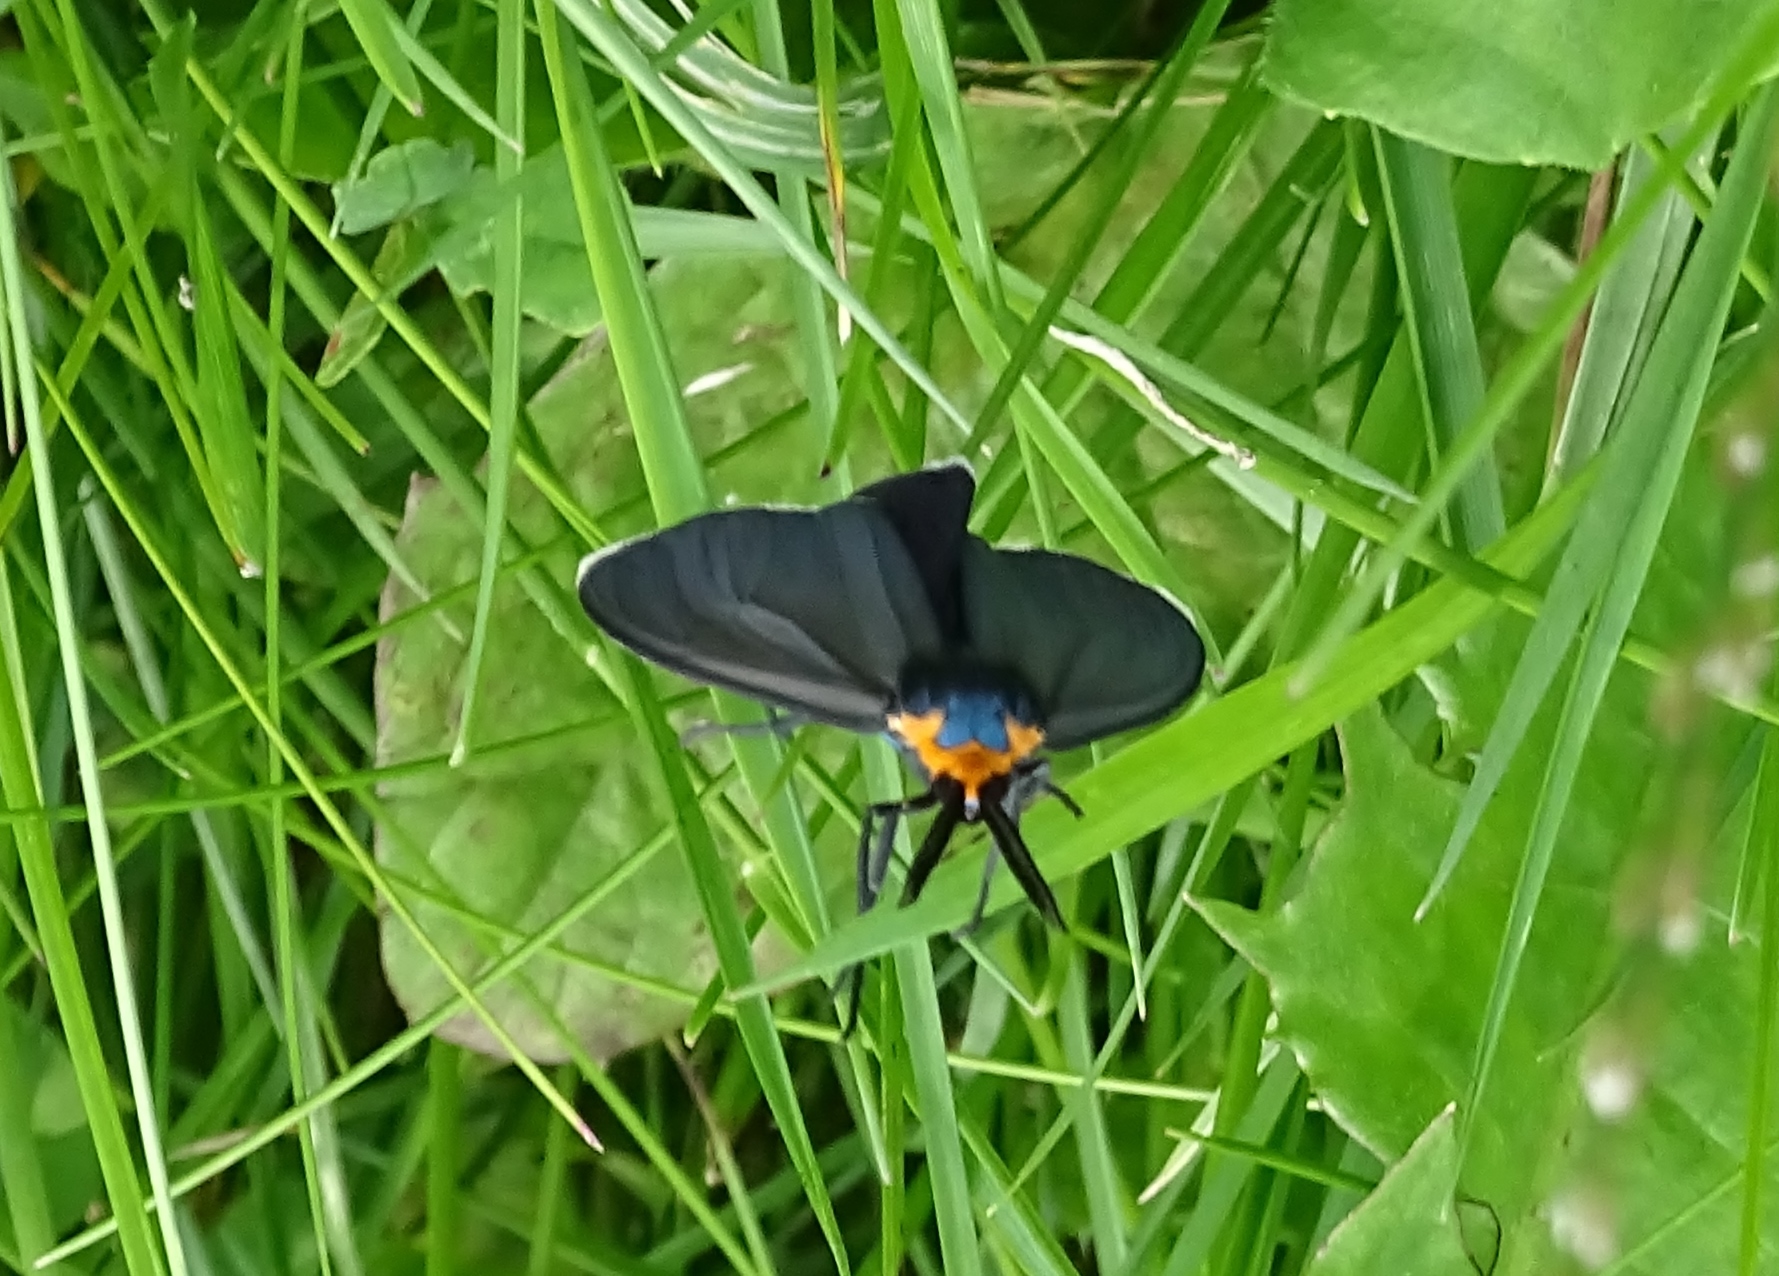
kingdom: Animalia
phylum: Arthropoda
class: Insecta
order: Lepidoptera
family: Erebidae
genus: Ctenucha
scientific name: Ctenucha virginica
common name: Virginia ctenucha moth
